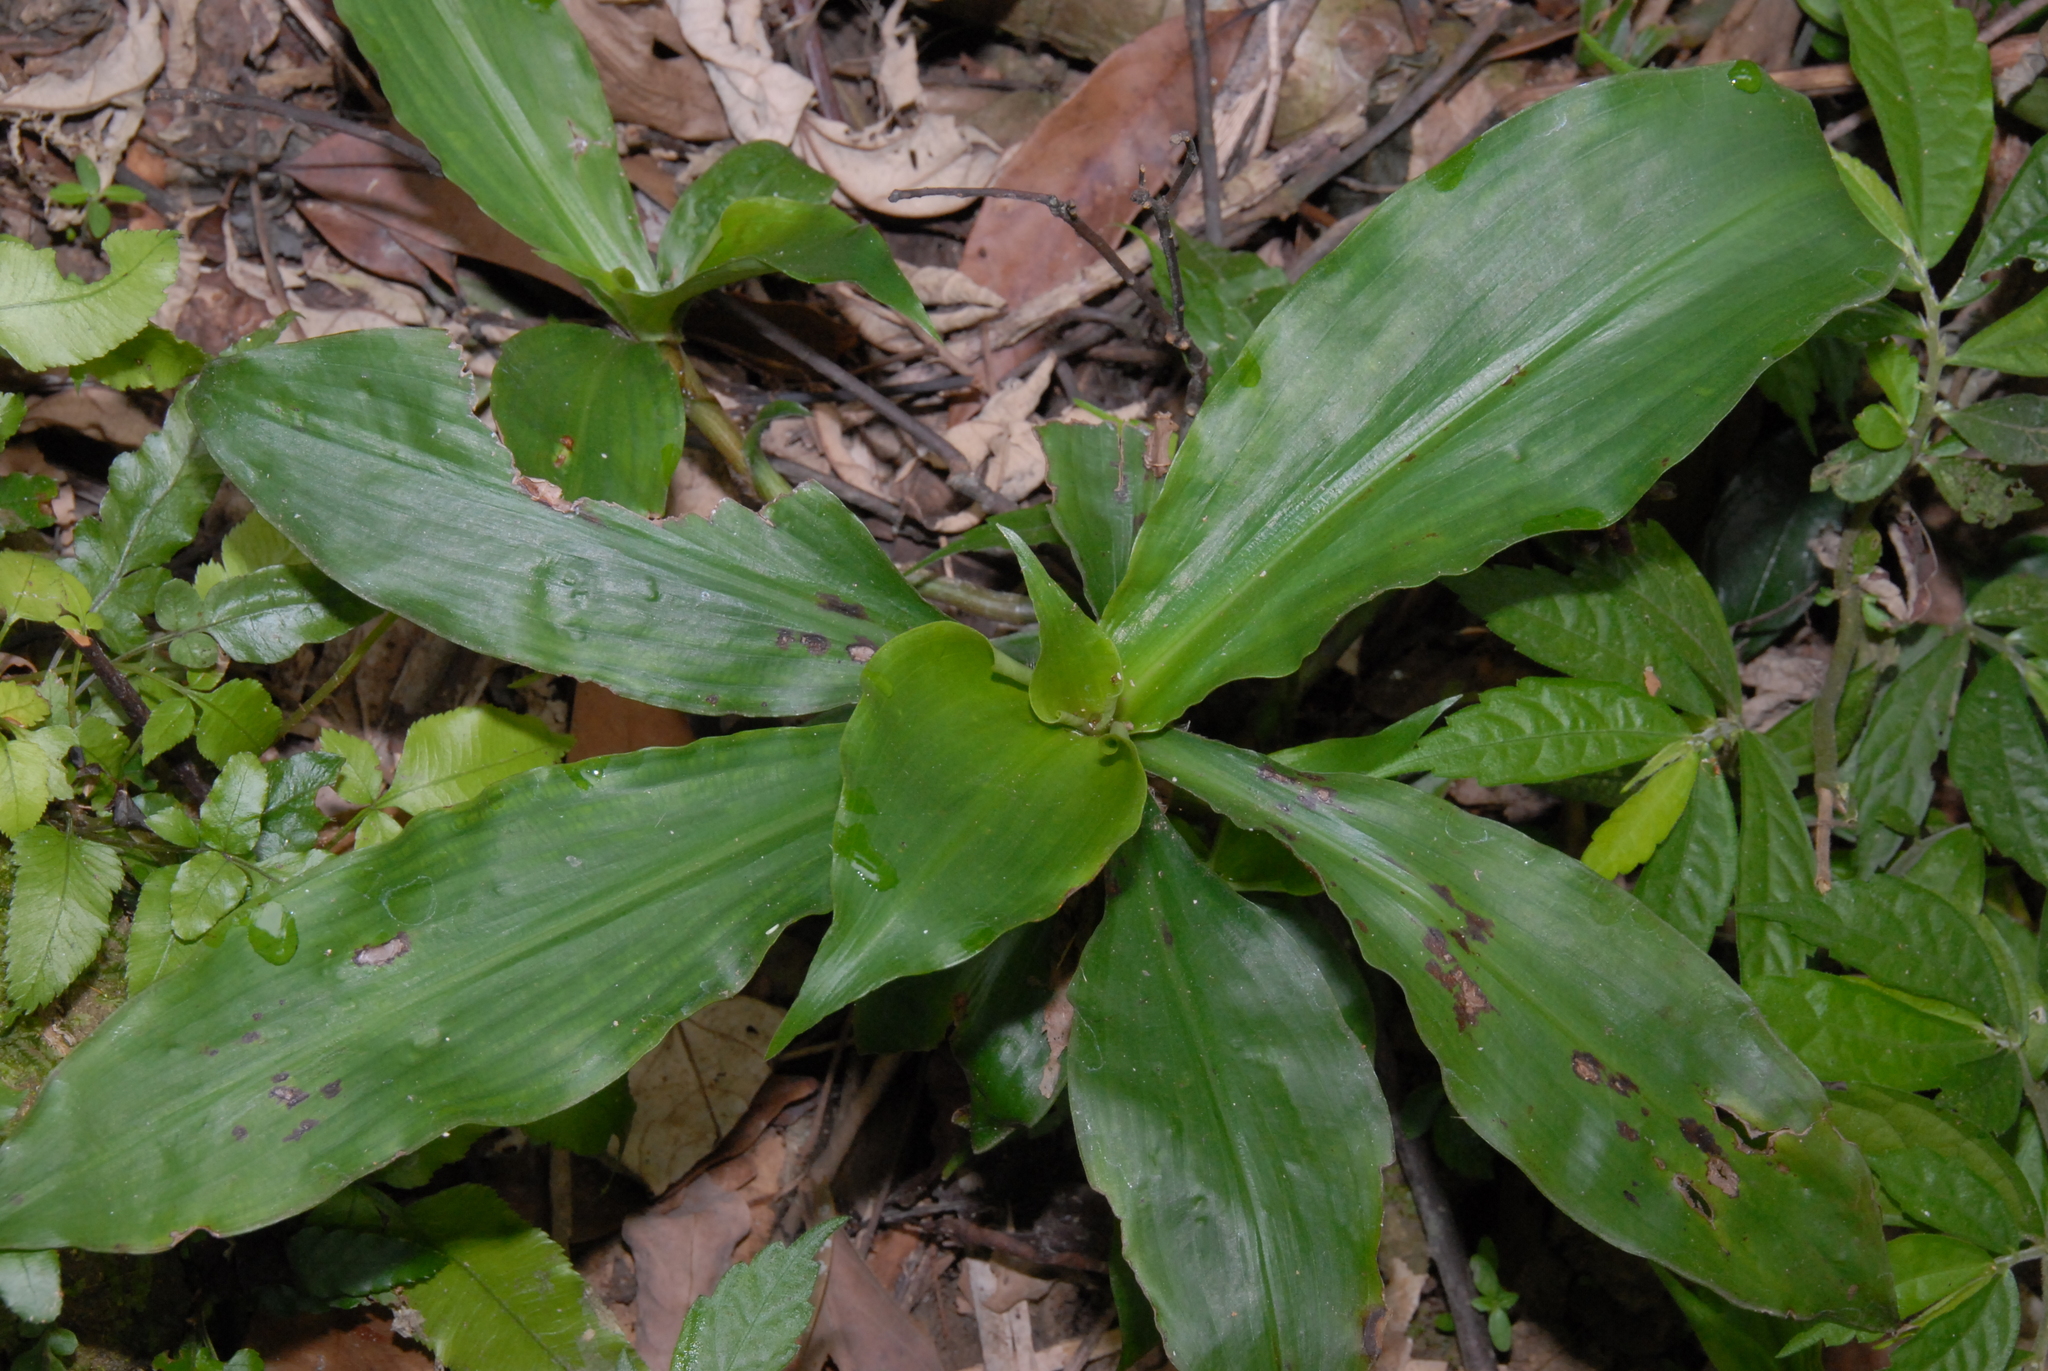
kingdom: Plantae
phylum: Tracheophyta
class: Liliopsida
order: Commelinales
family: Commelinaceae
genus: Amischotolype
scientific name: Amischotolype glabrata
